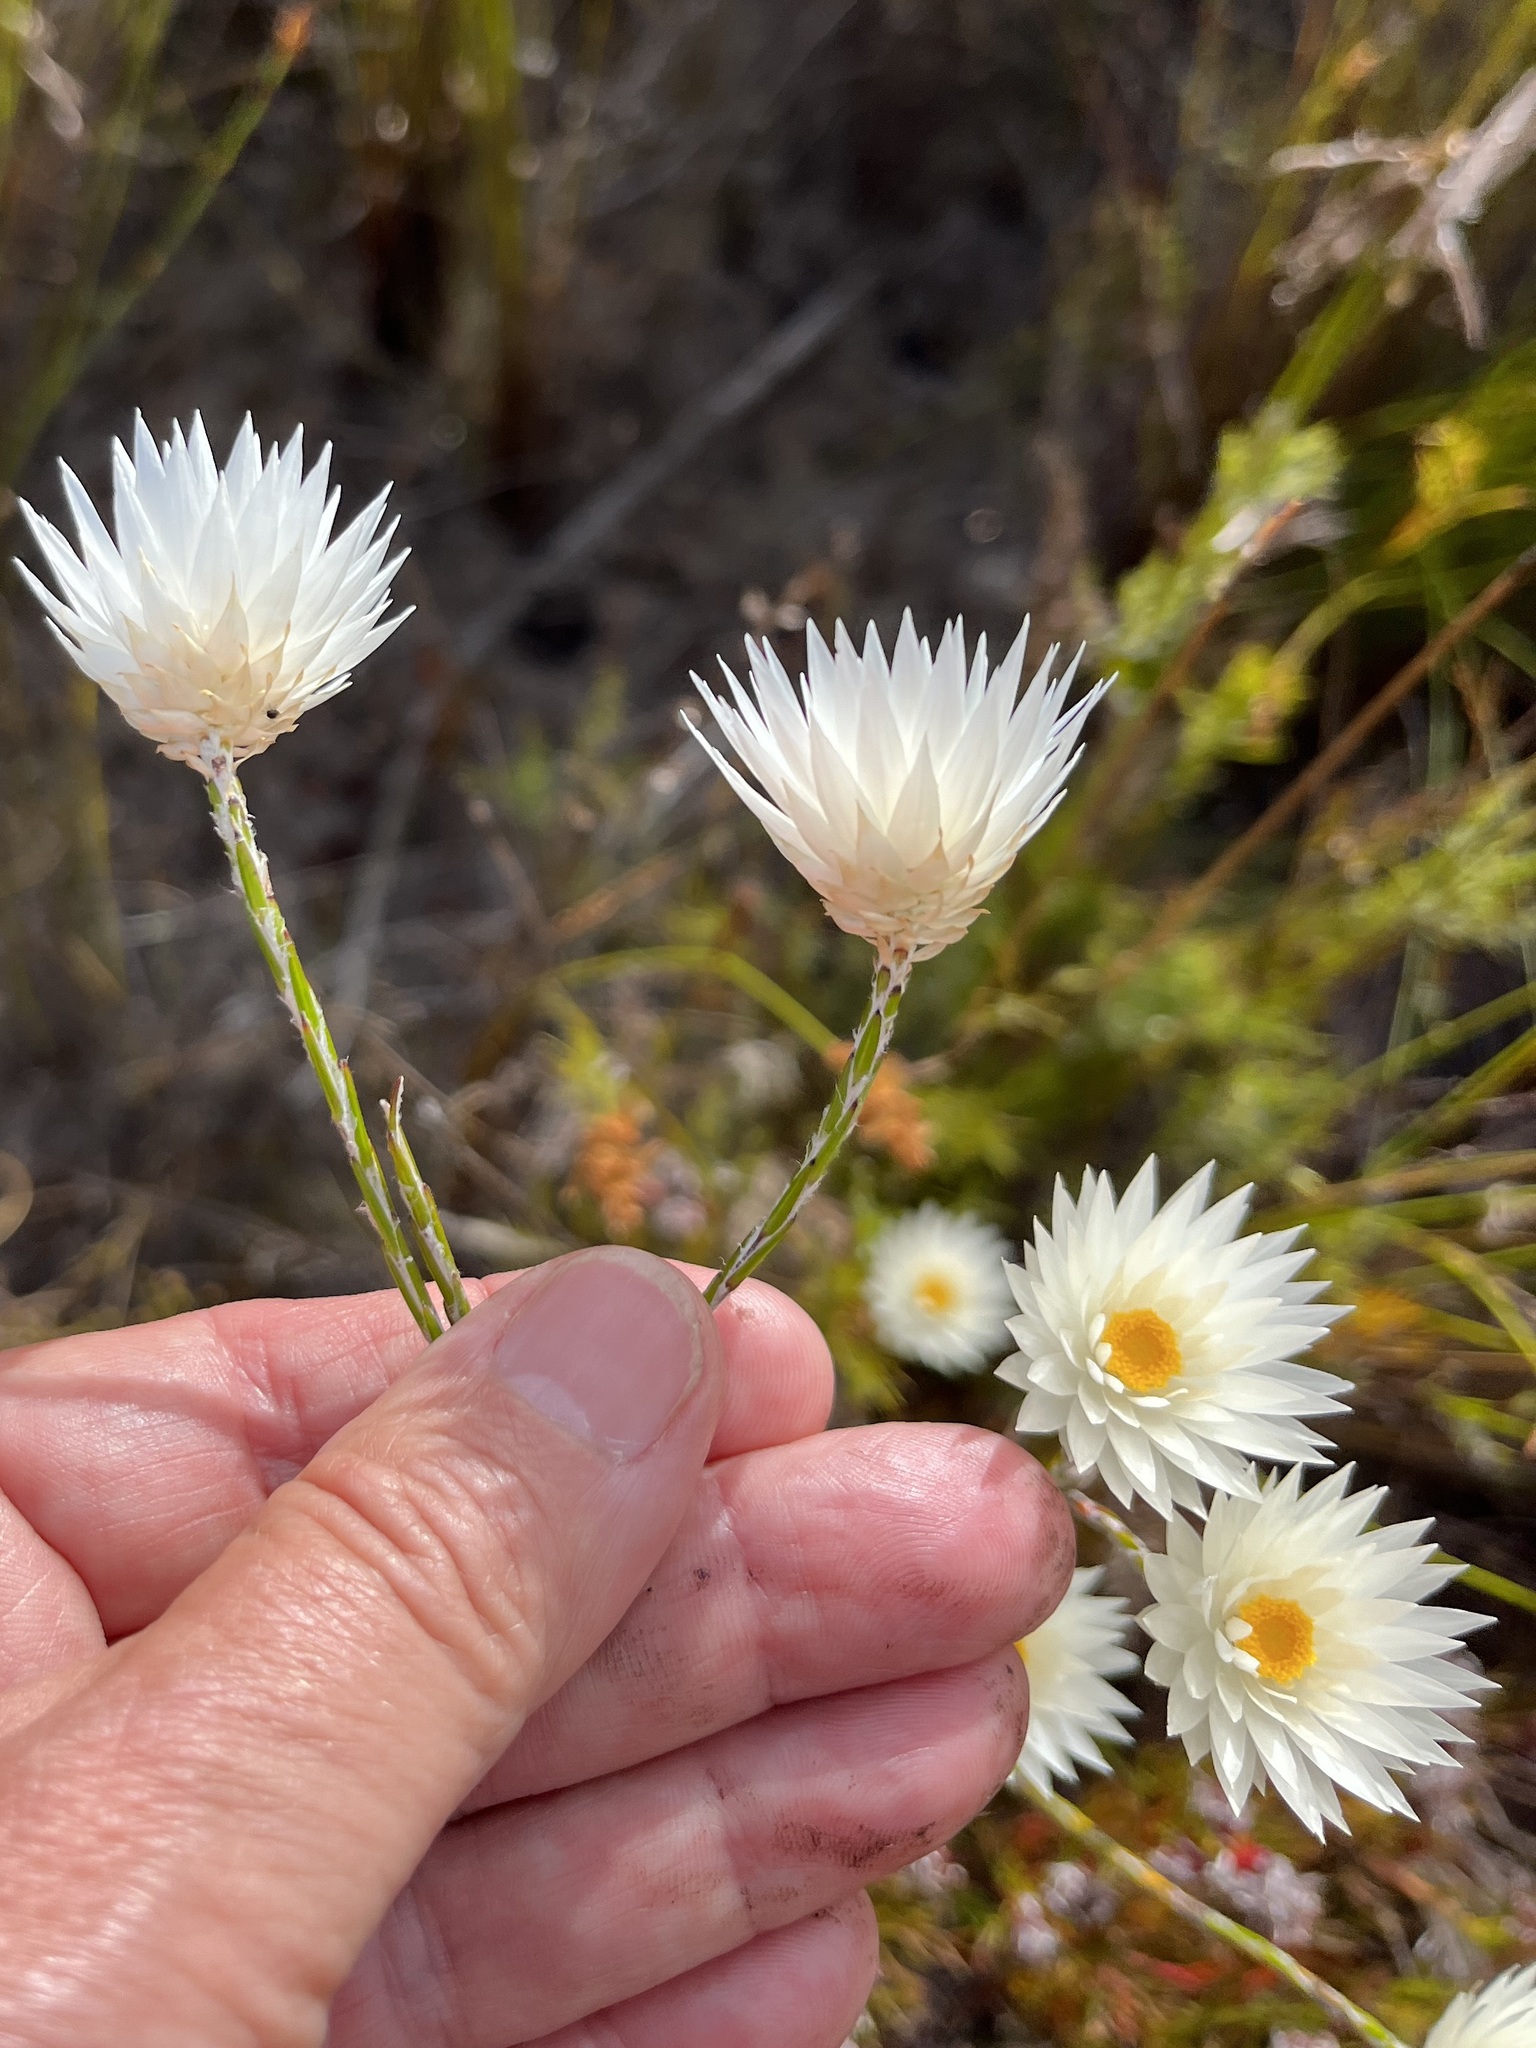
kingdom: Plantae
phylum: Tracheophyta
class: Magnoliopsida
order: Asterales
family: Asteraceae
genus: Edmondia
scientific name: Edmondia sesamoides
